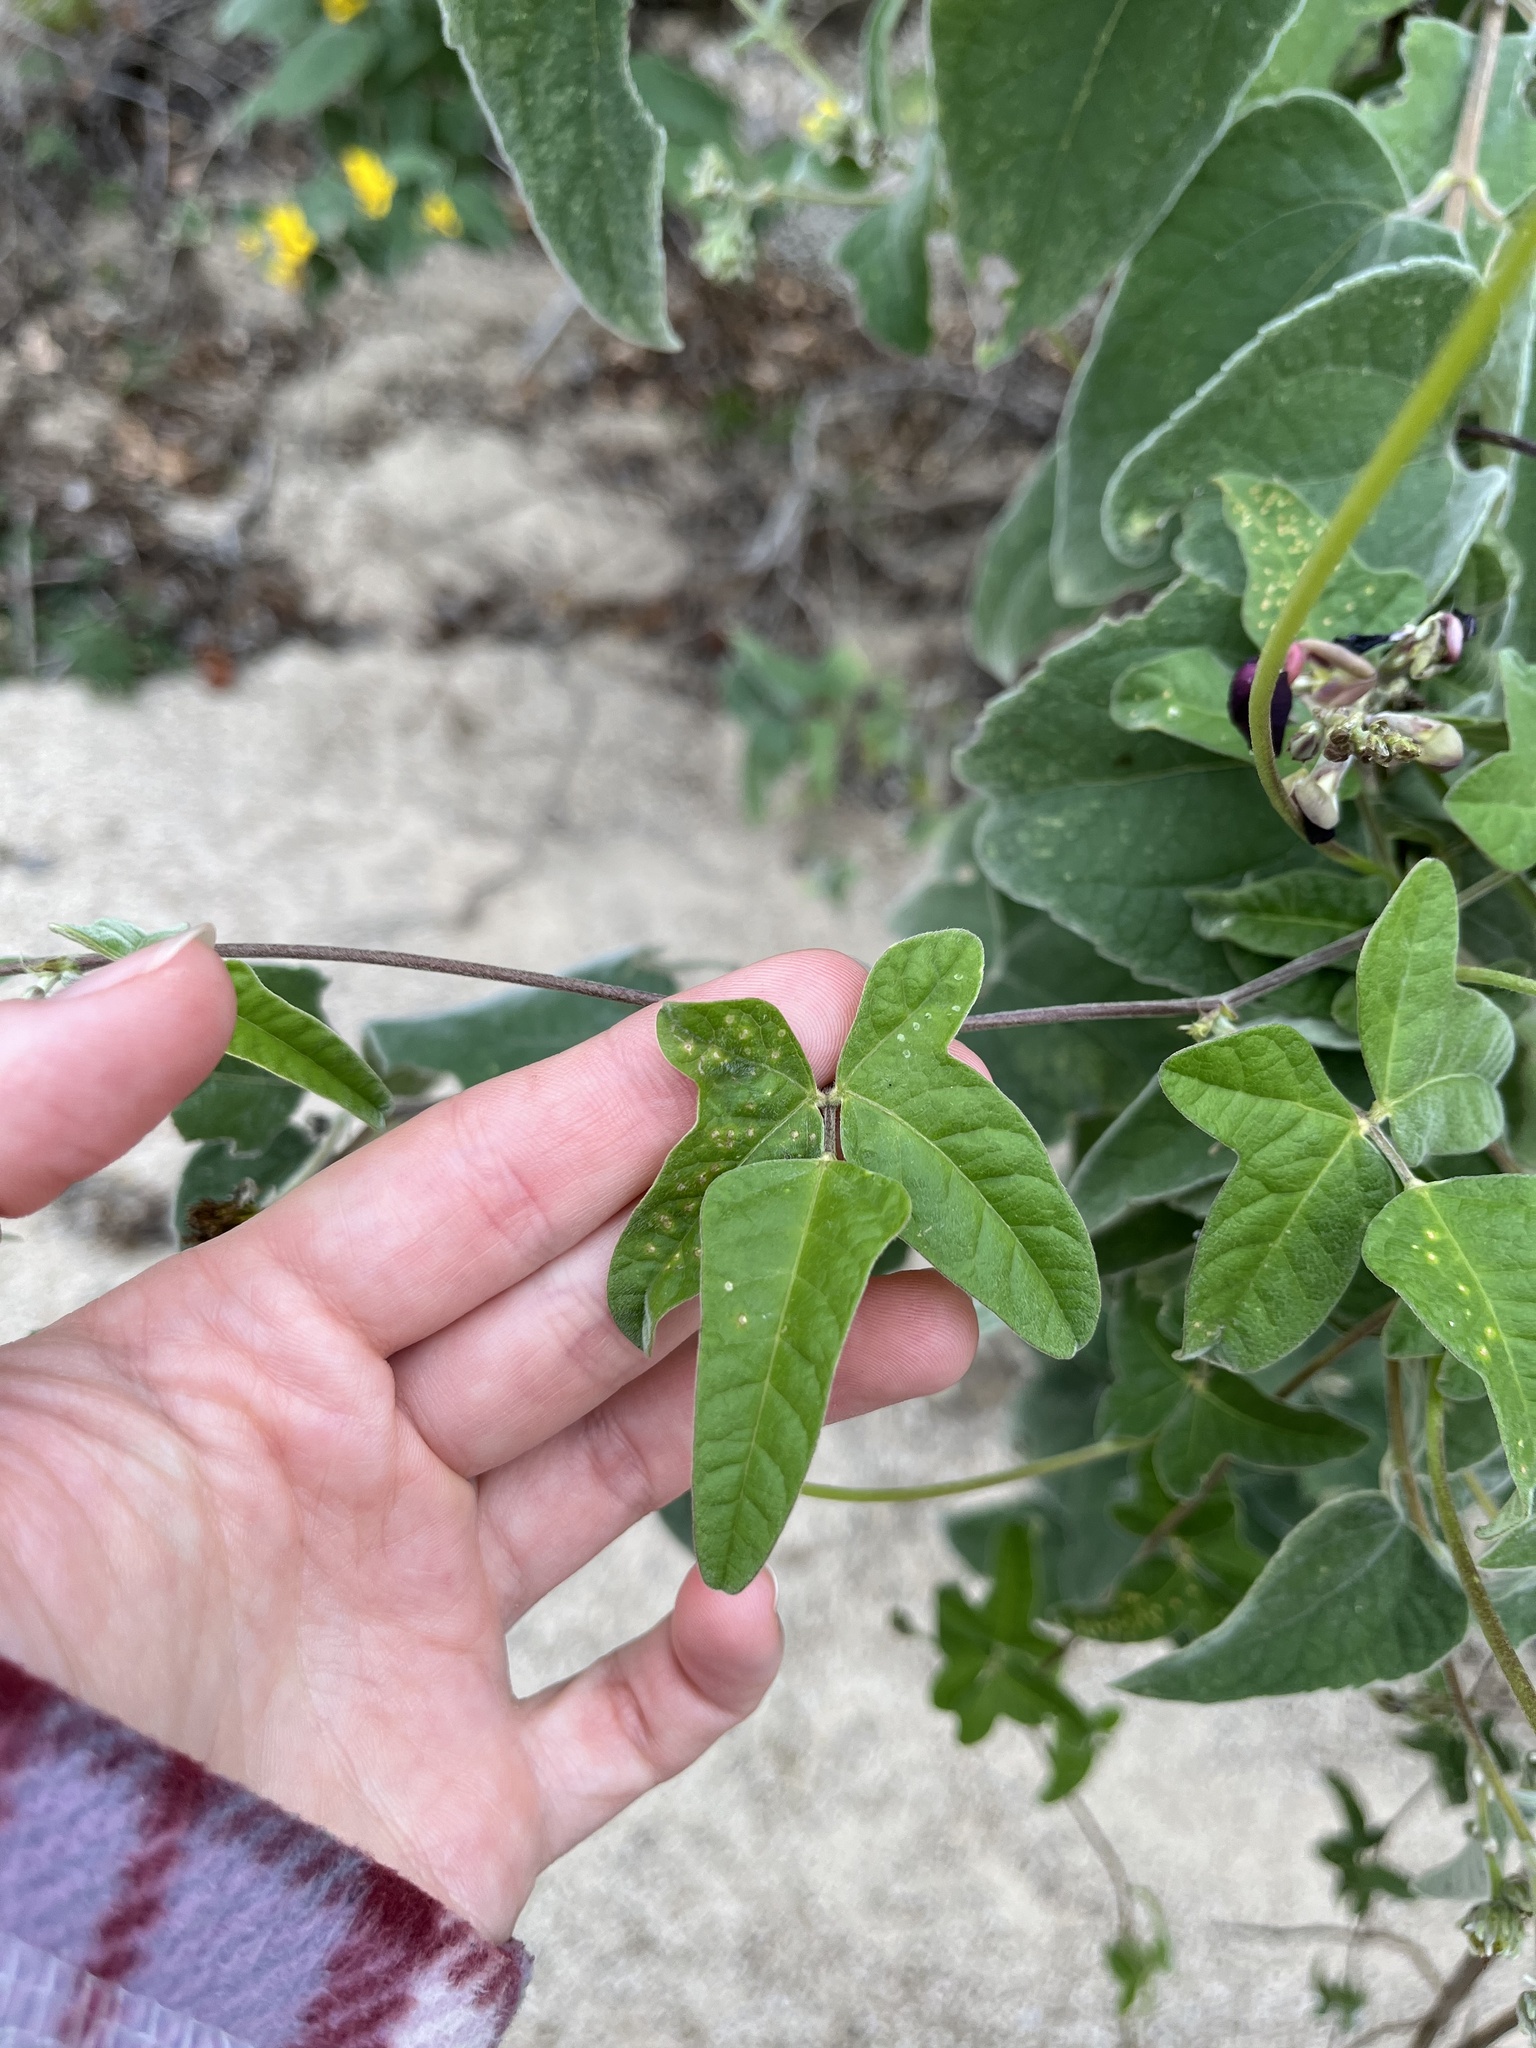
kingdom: Plantae
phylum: Tracheophyta
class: Magnoliopsida
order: Fabales
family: Fabaceae
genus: Macroptilium
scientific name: Macroptilium atropurpureum
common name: Purple bushbean
